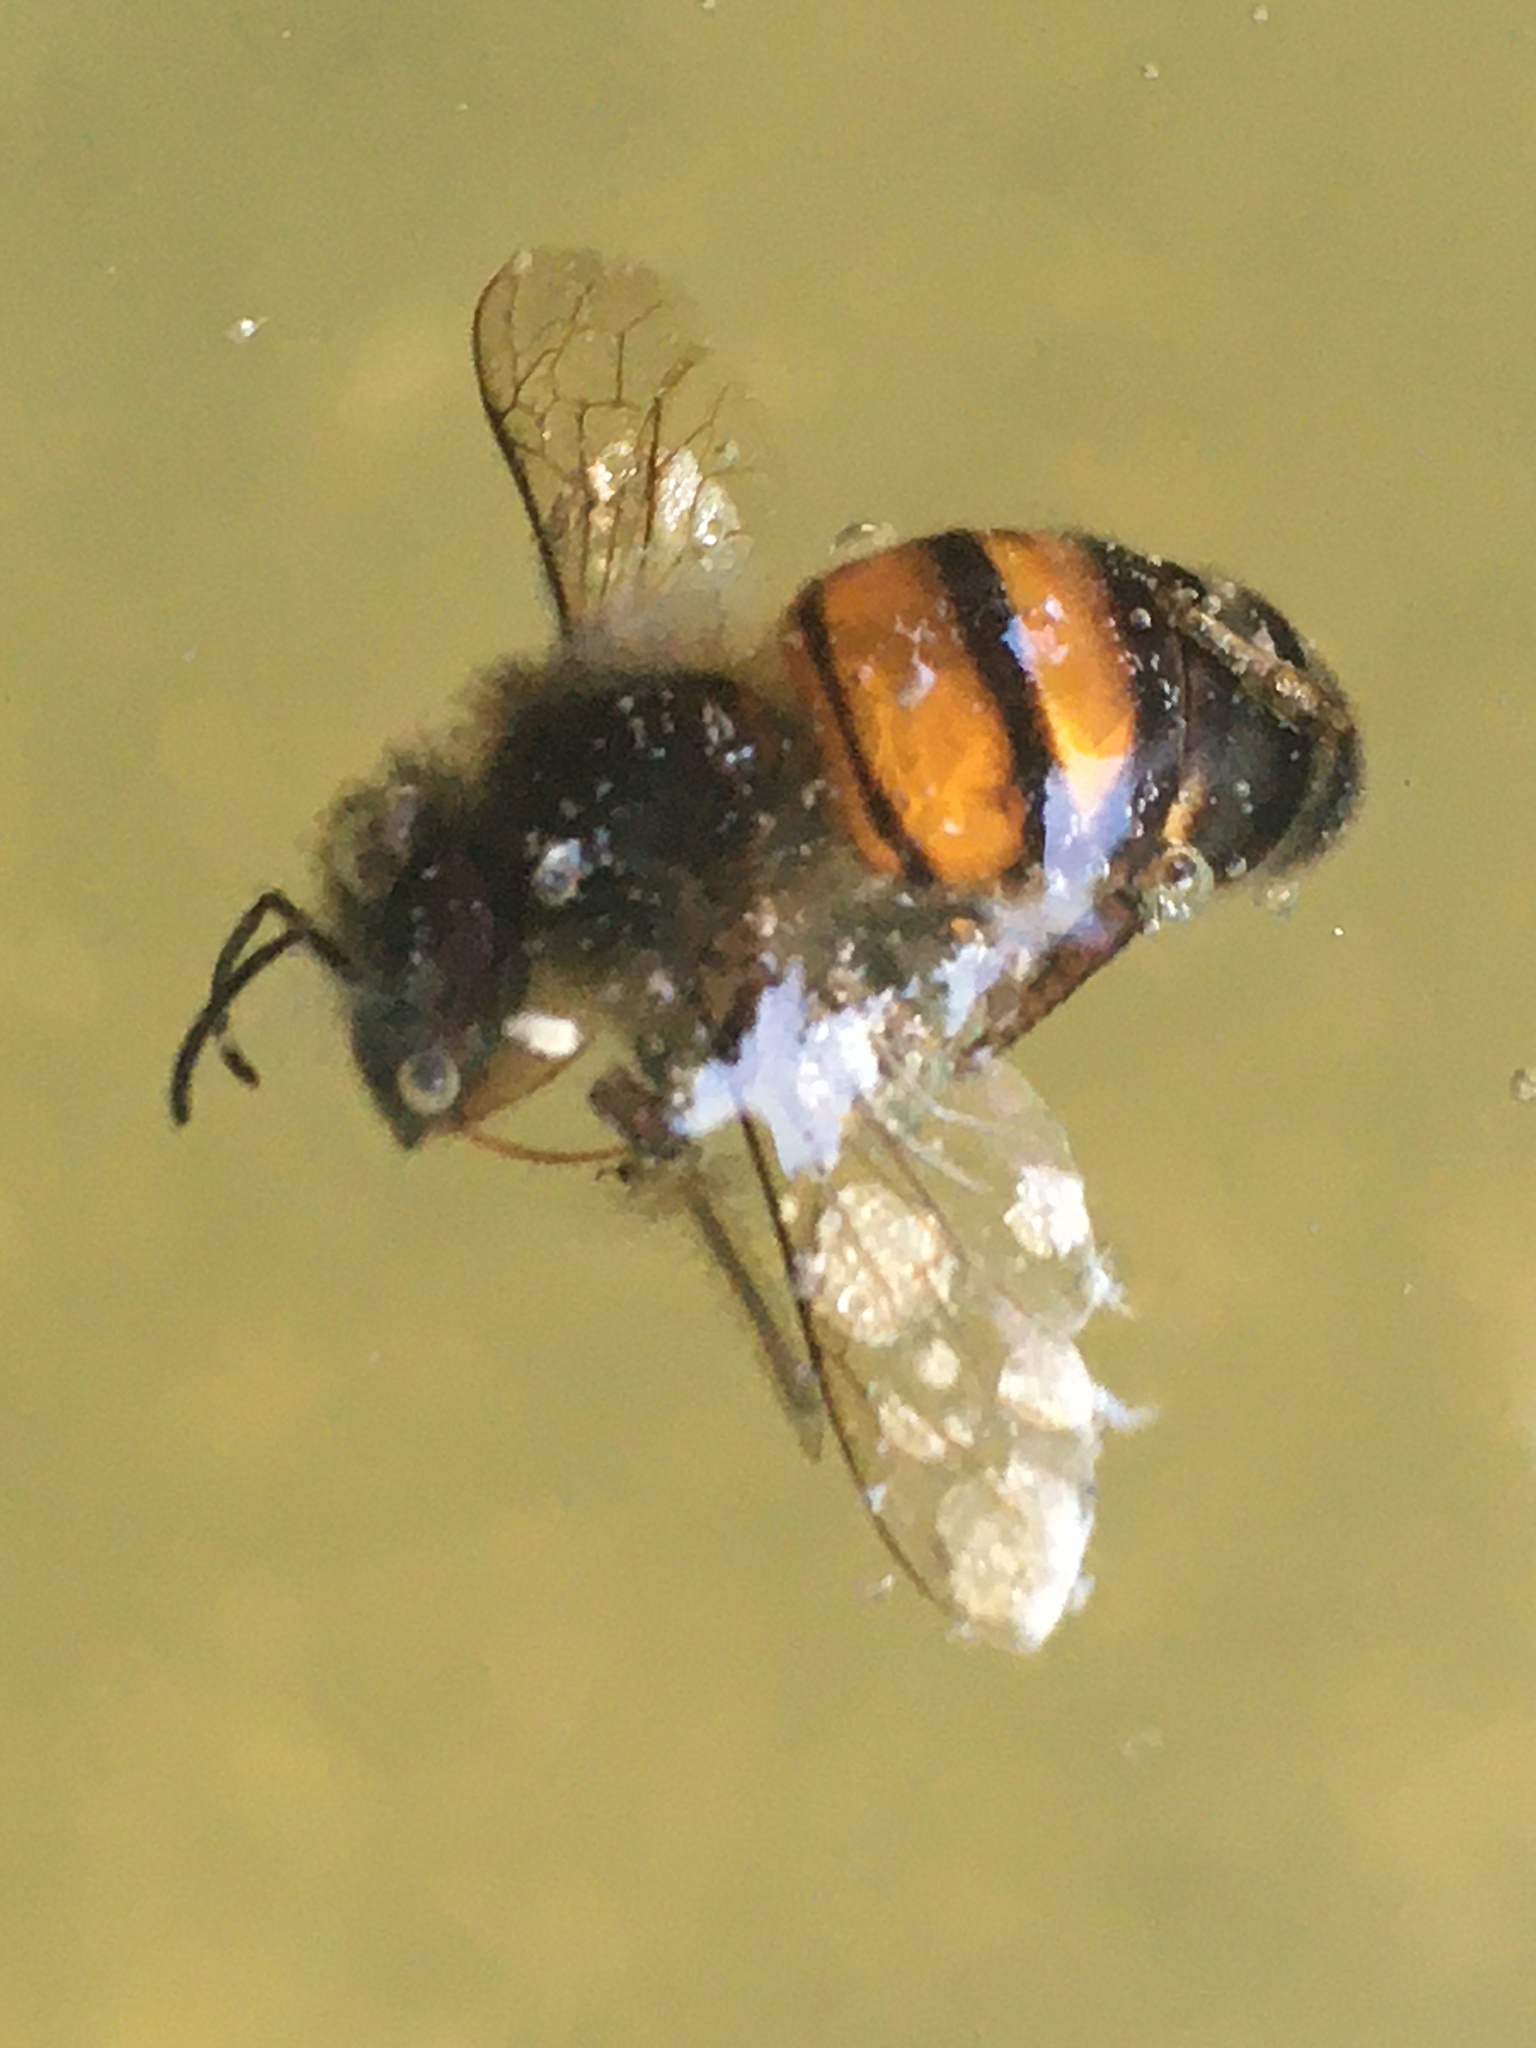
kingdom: Animalia
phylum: Arthropoda
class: Insecta
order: Hymenoptera
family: Apidae
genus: Apis
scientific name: Apis mellifera
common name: Honey bee
